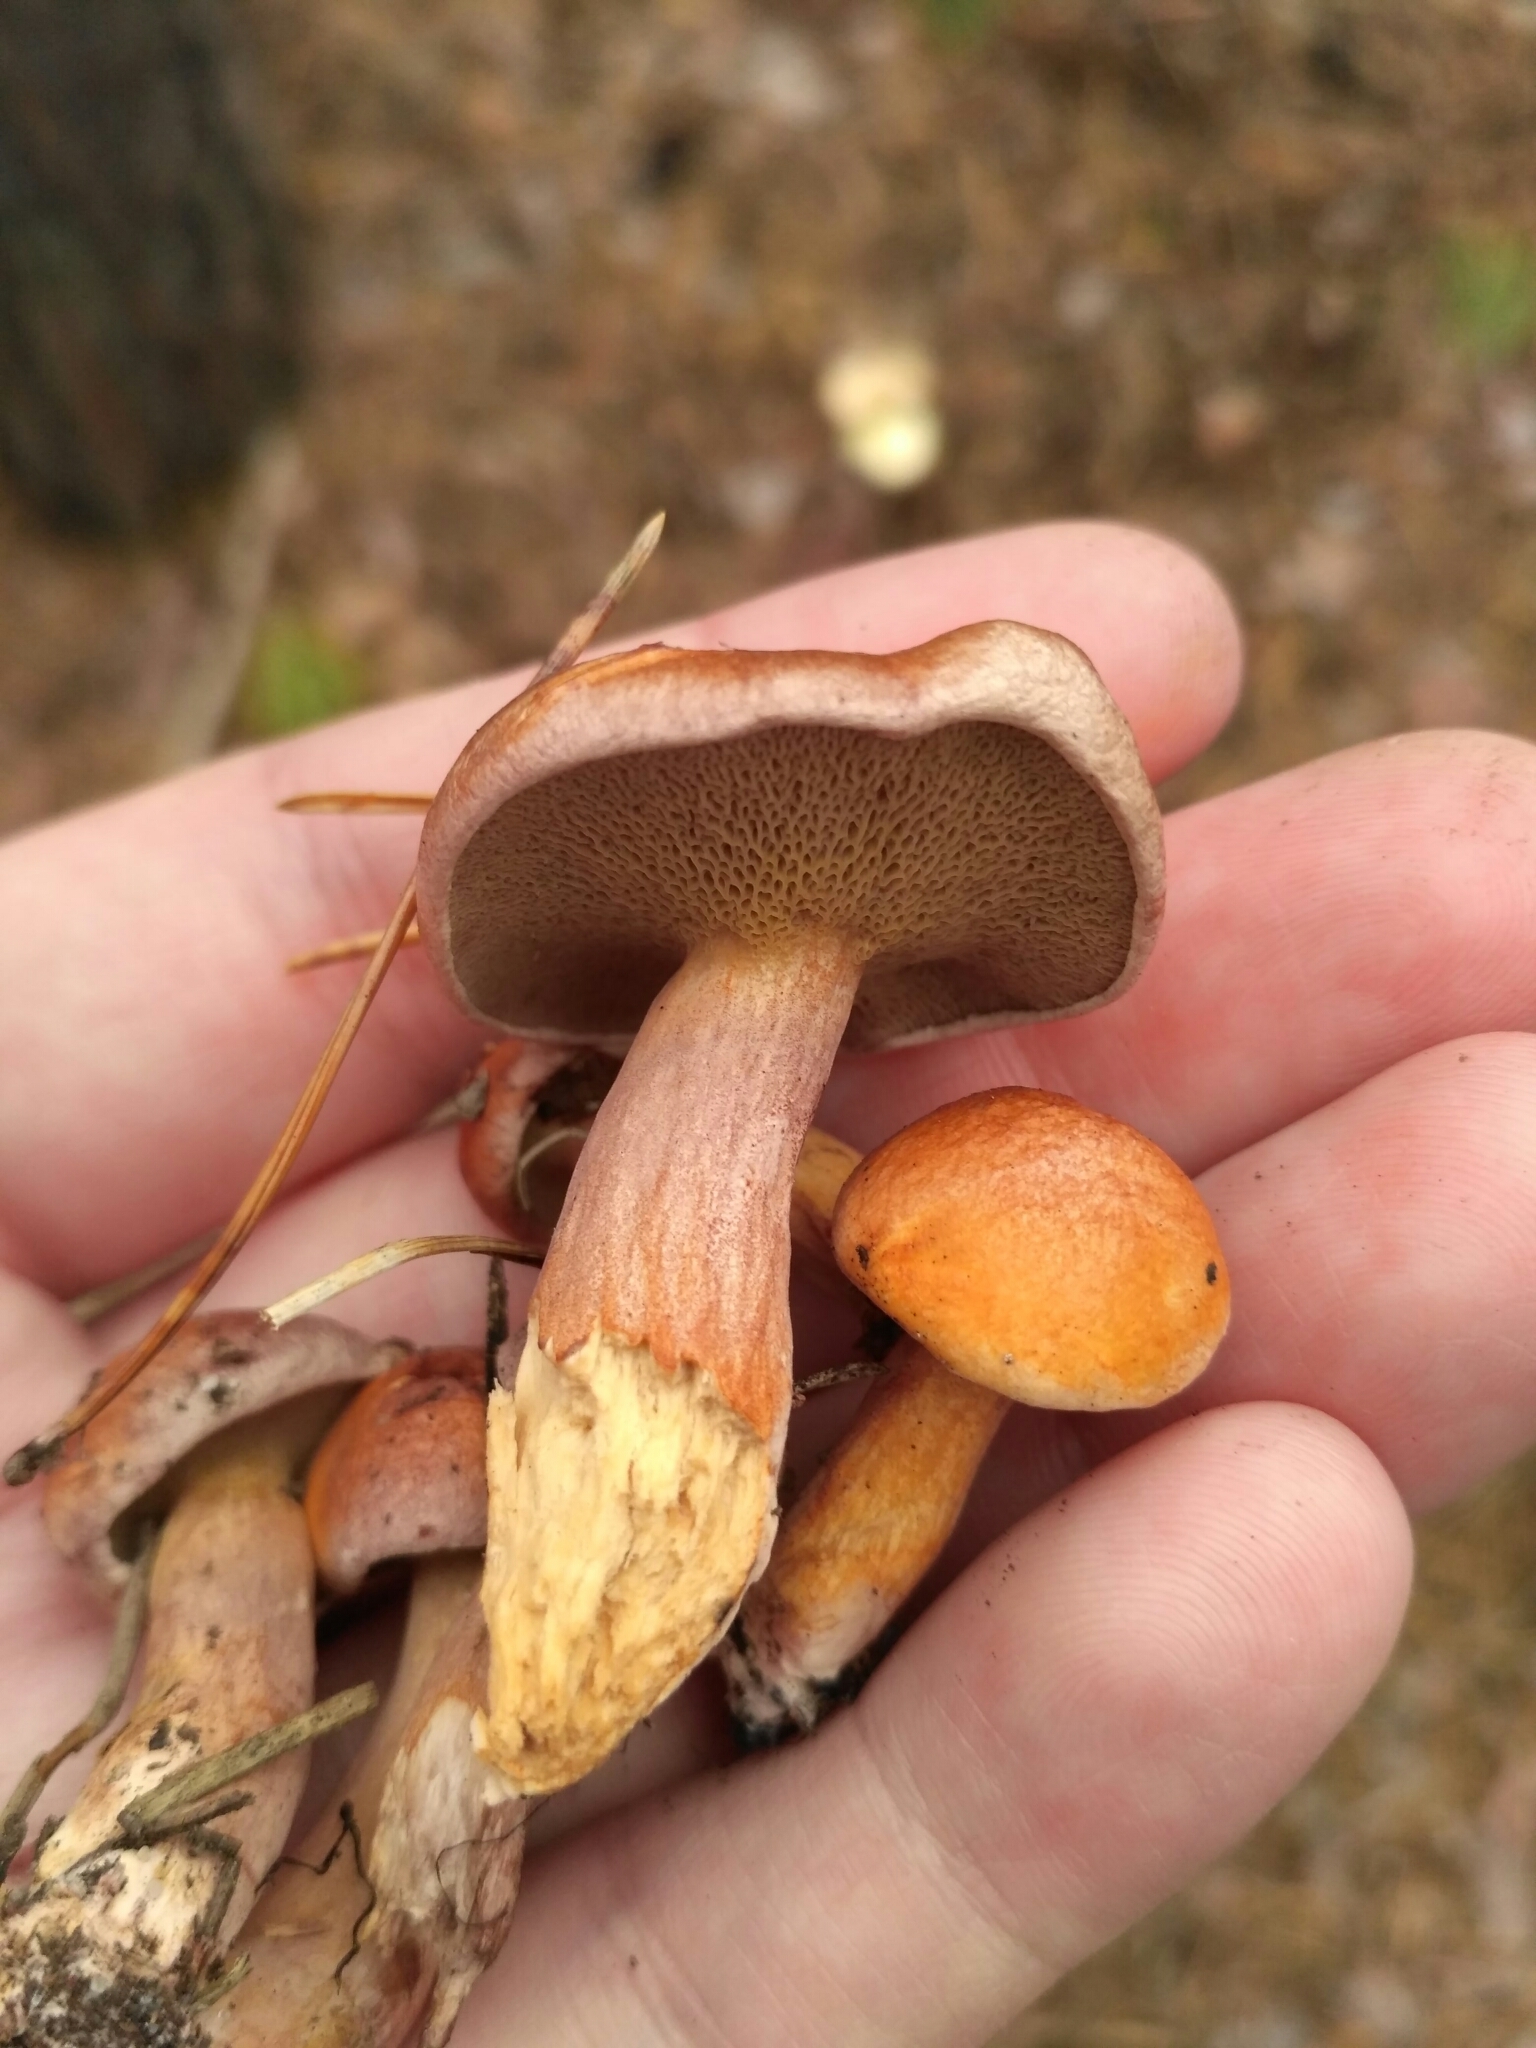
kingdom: Fungi
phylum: Basidiomycota
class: Agaricomycetes
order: Boletales
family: Suillaceae
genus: Suillus
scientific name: Suillus bovinus
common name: Bovine bolete
